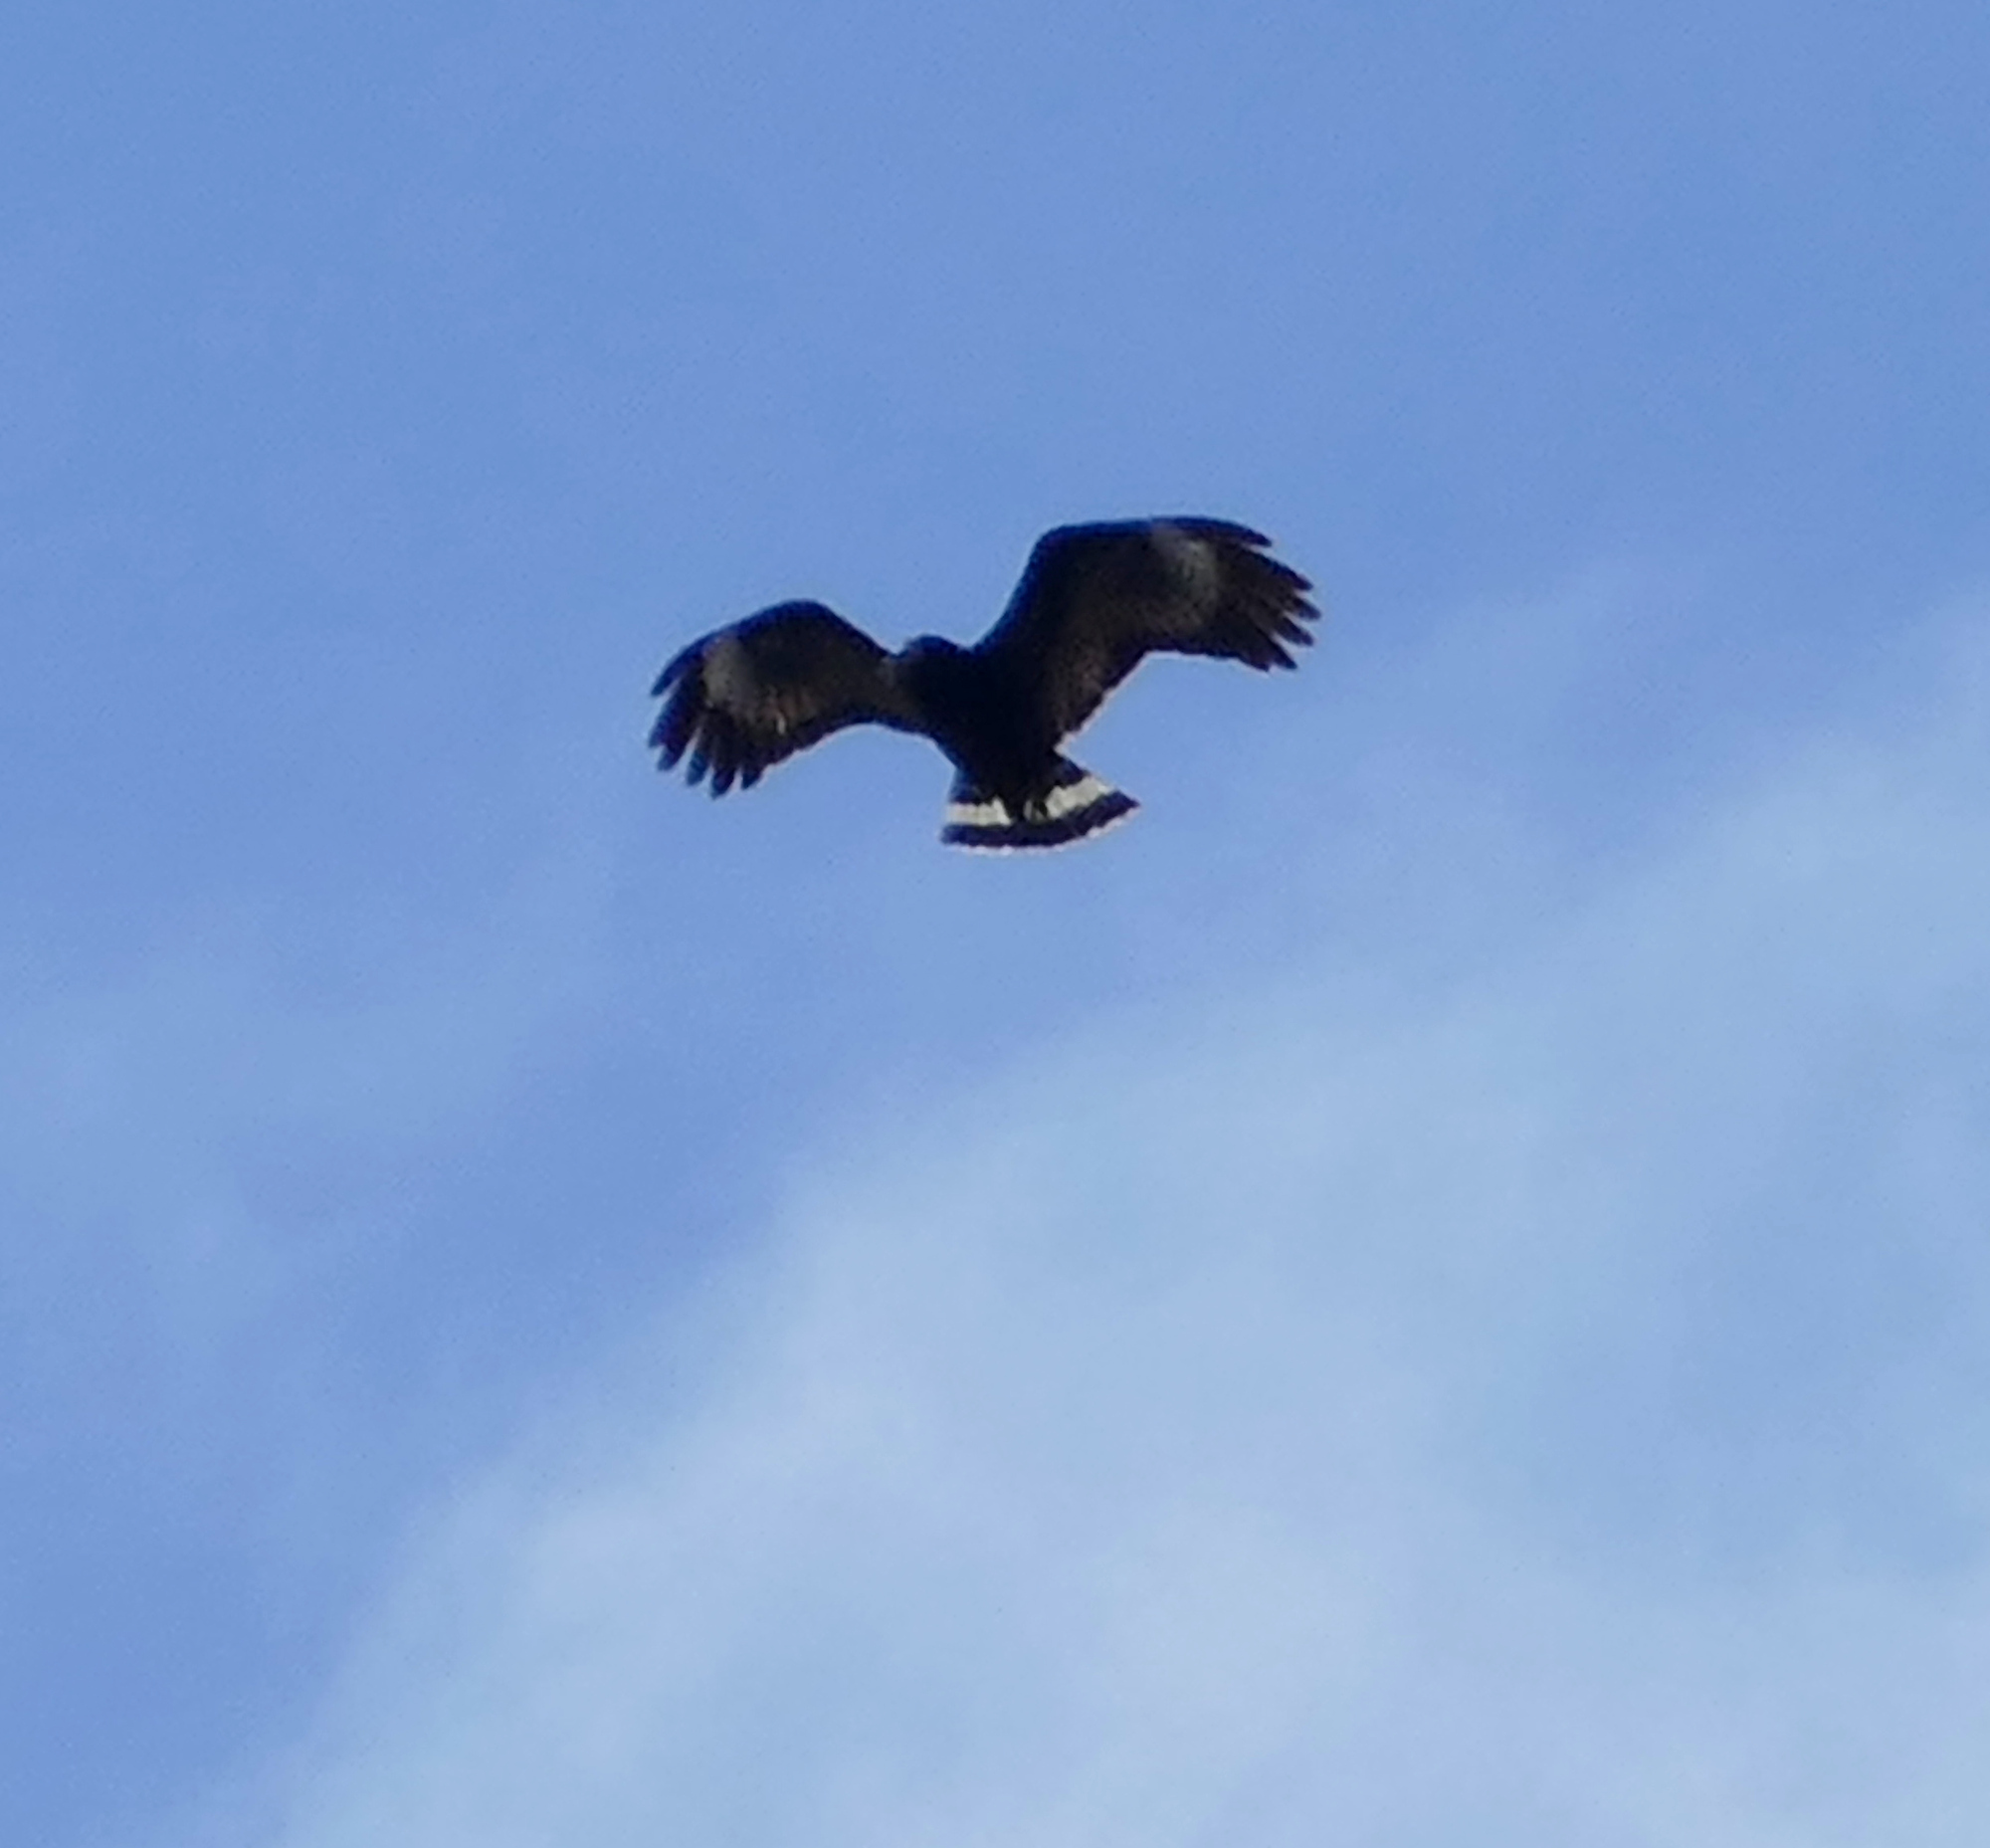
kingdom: Animalia
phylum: Chordata
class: Aves
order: Accipitriformes
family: Accipitridae
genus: Buteogallus
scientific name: Buteogallus anthracinus
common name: Common black hawk
